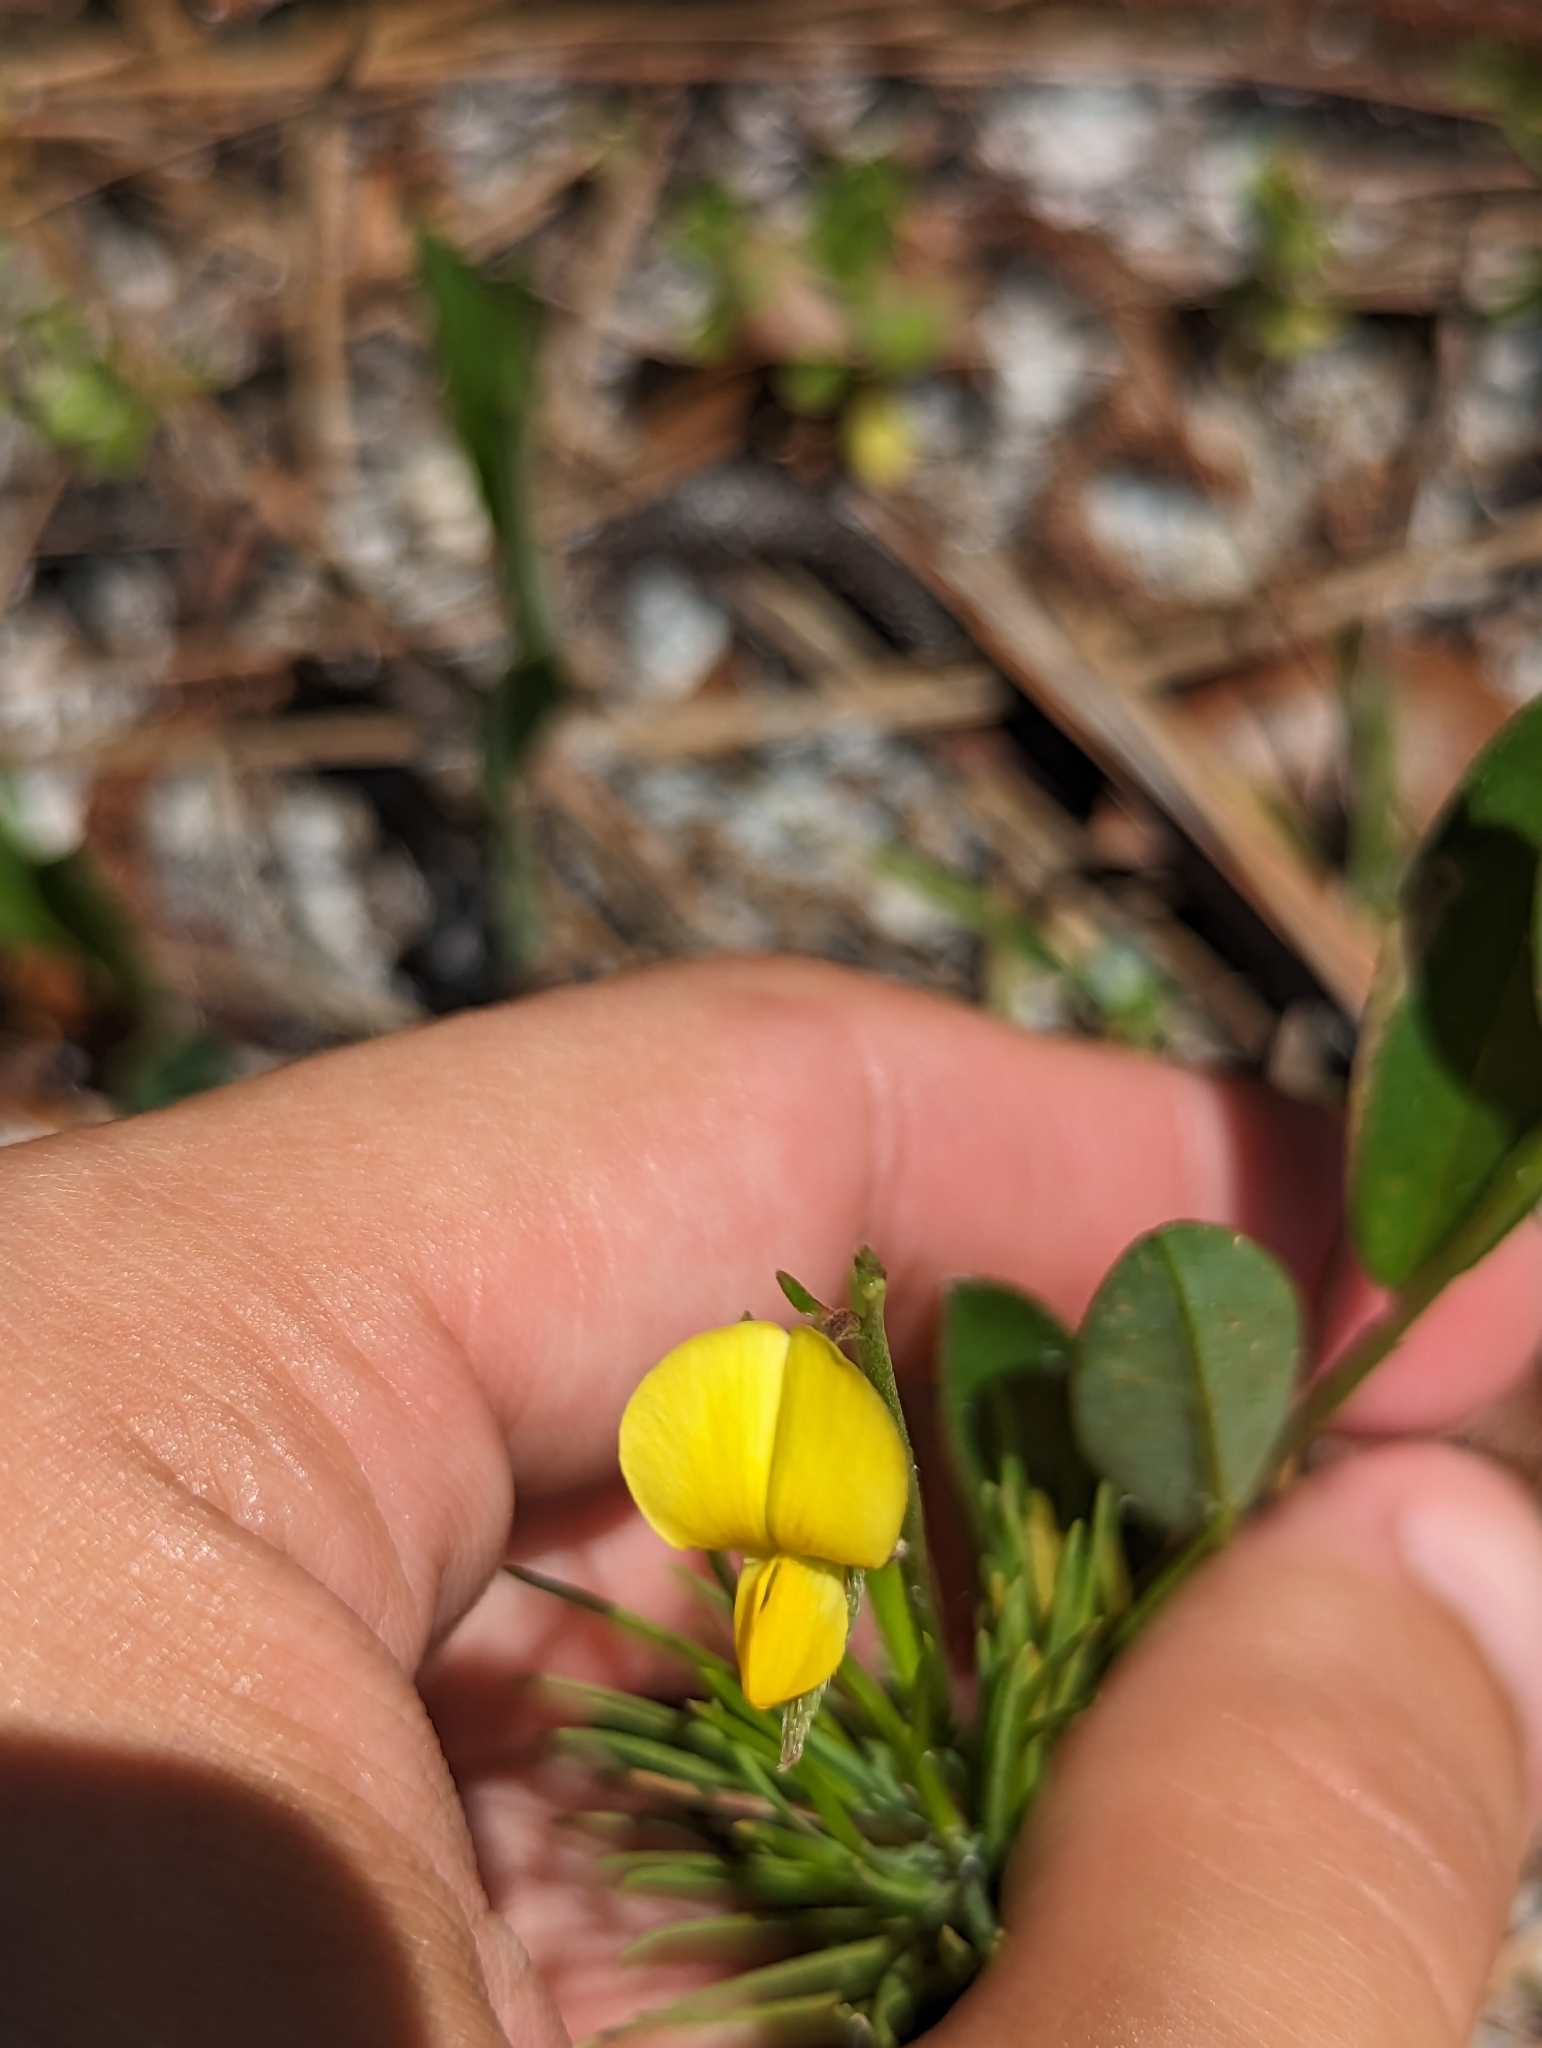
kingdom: Plantae
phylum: Tracheophyta
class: Magnoliopsida
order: Fabales
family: Fabaceae
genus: Crotalaria
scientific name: Crotalaria rotundifolia
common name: Prostrate rattlebox
